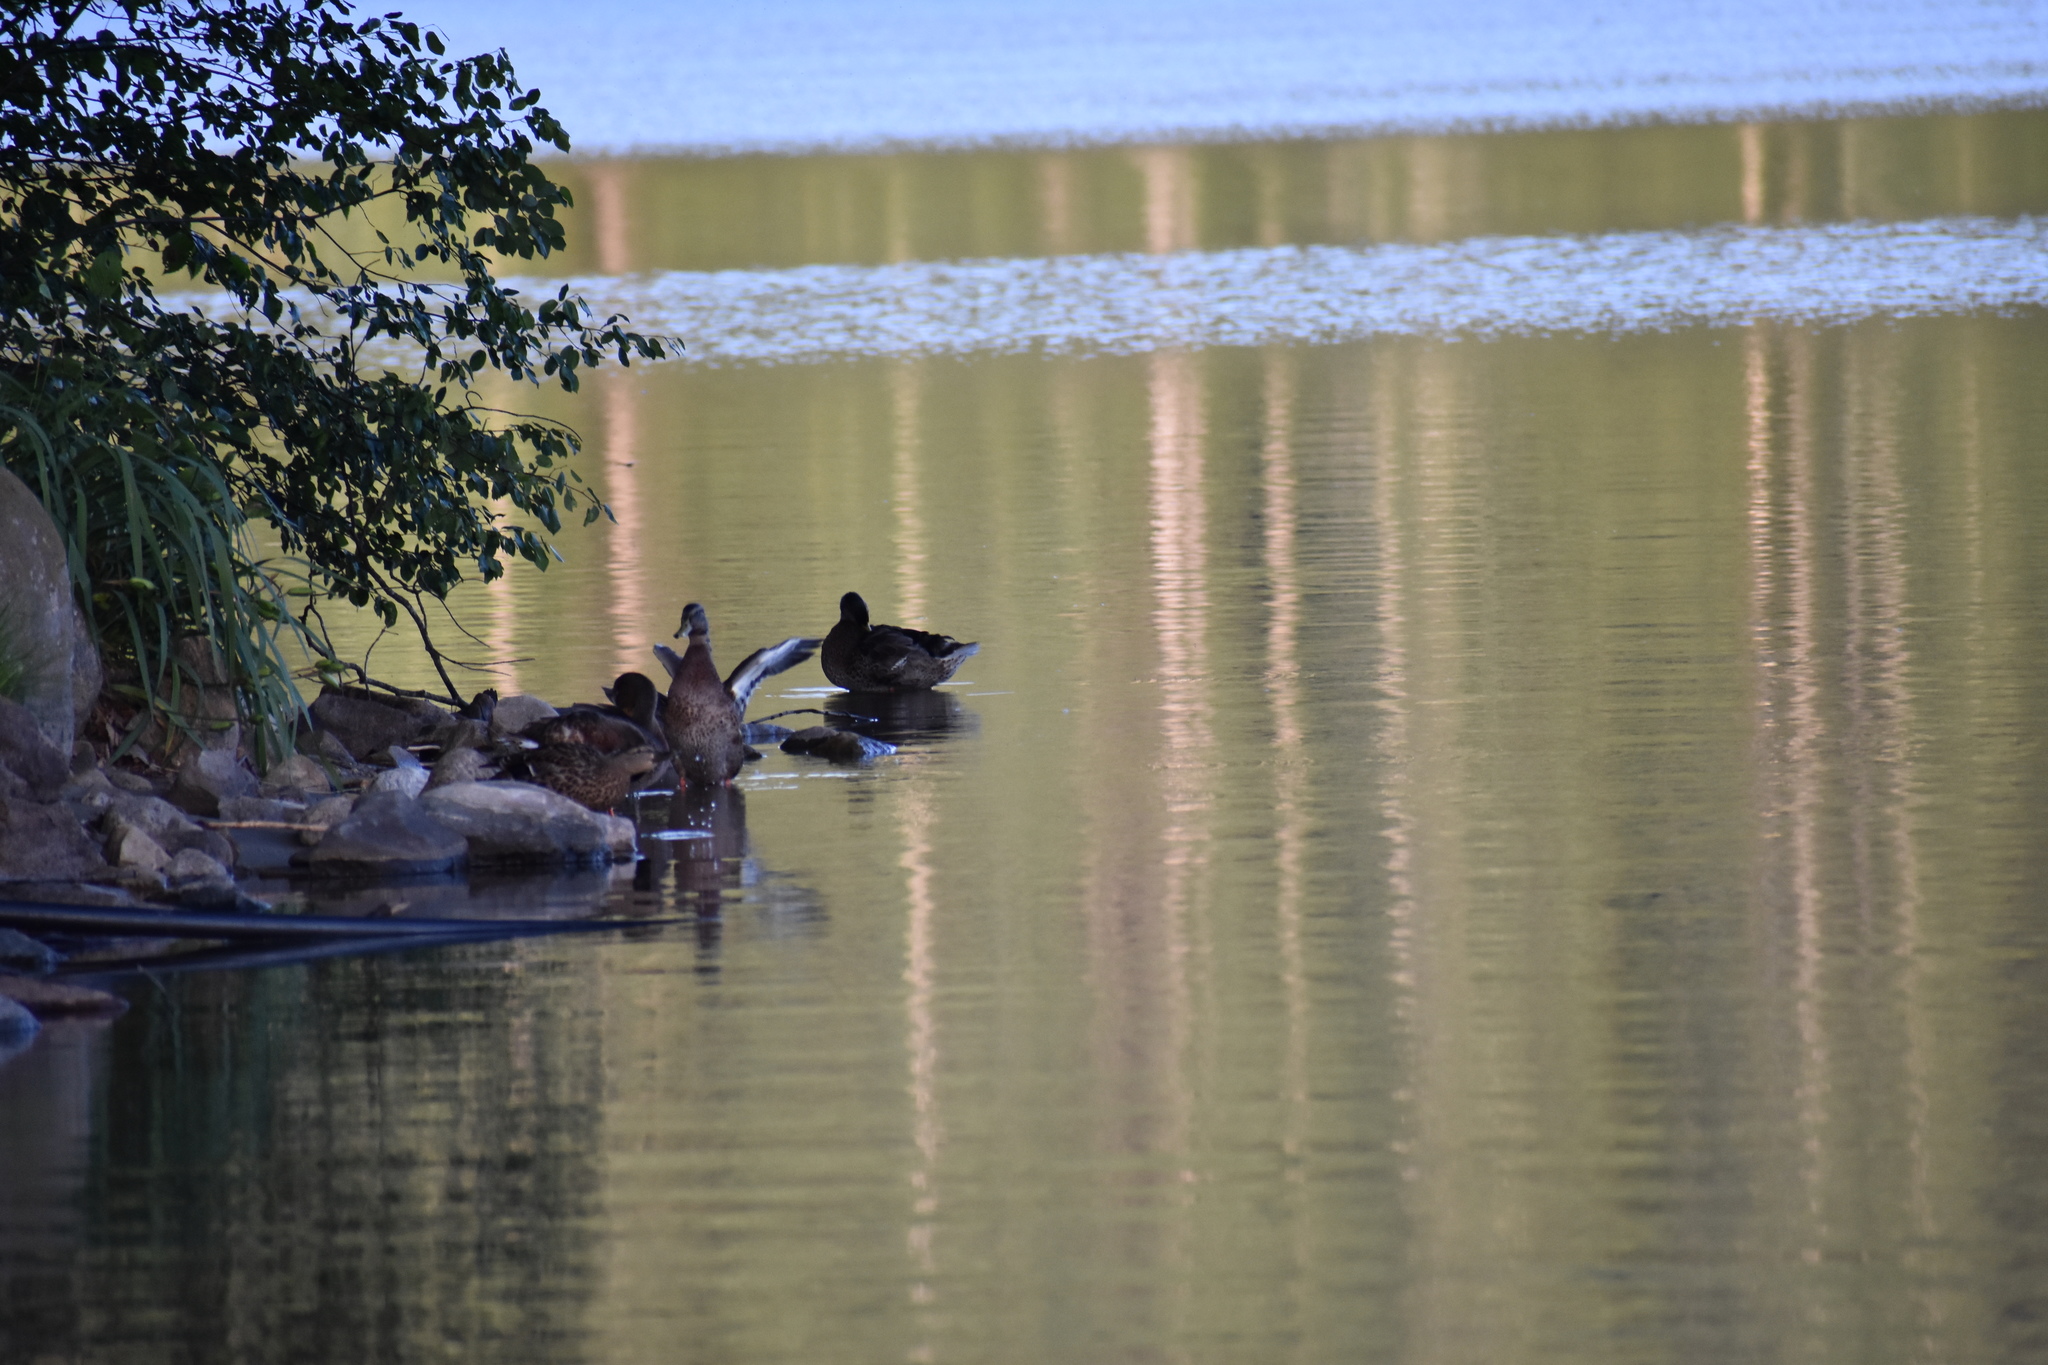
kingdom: Animalia
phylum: Chordata
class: Aves
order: Anseriformes
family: Anatidae
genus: Anas
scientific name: Anas platyrhynchos
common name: Mallard
